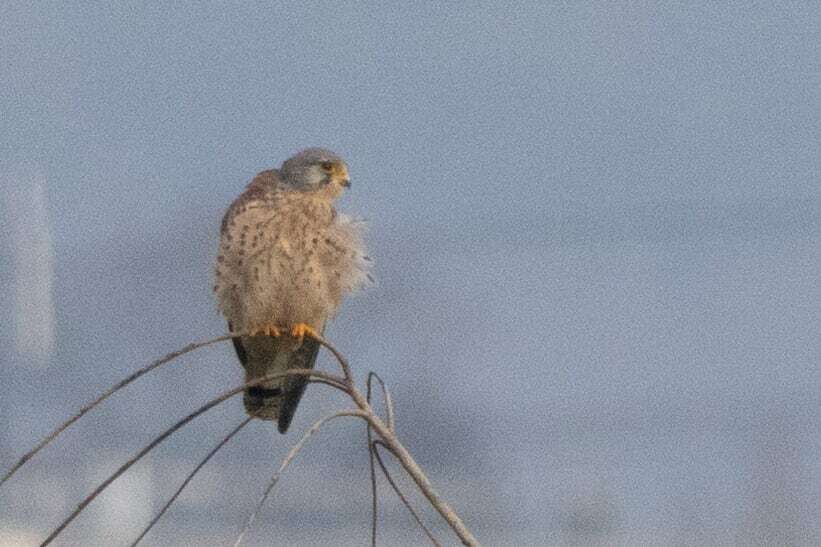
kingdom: Animalia
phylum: Chordata
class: Aves
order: Falconiformes
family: Falconidae
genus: Falco
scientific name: Falco tinnunculus
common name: Common kestrel
